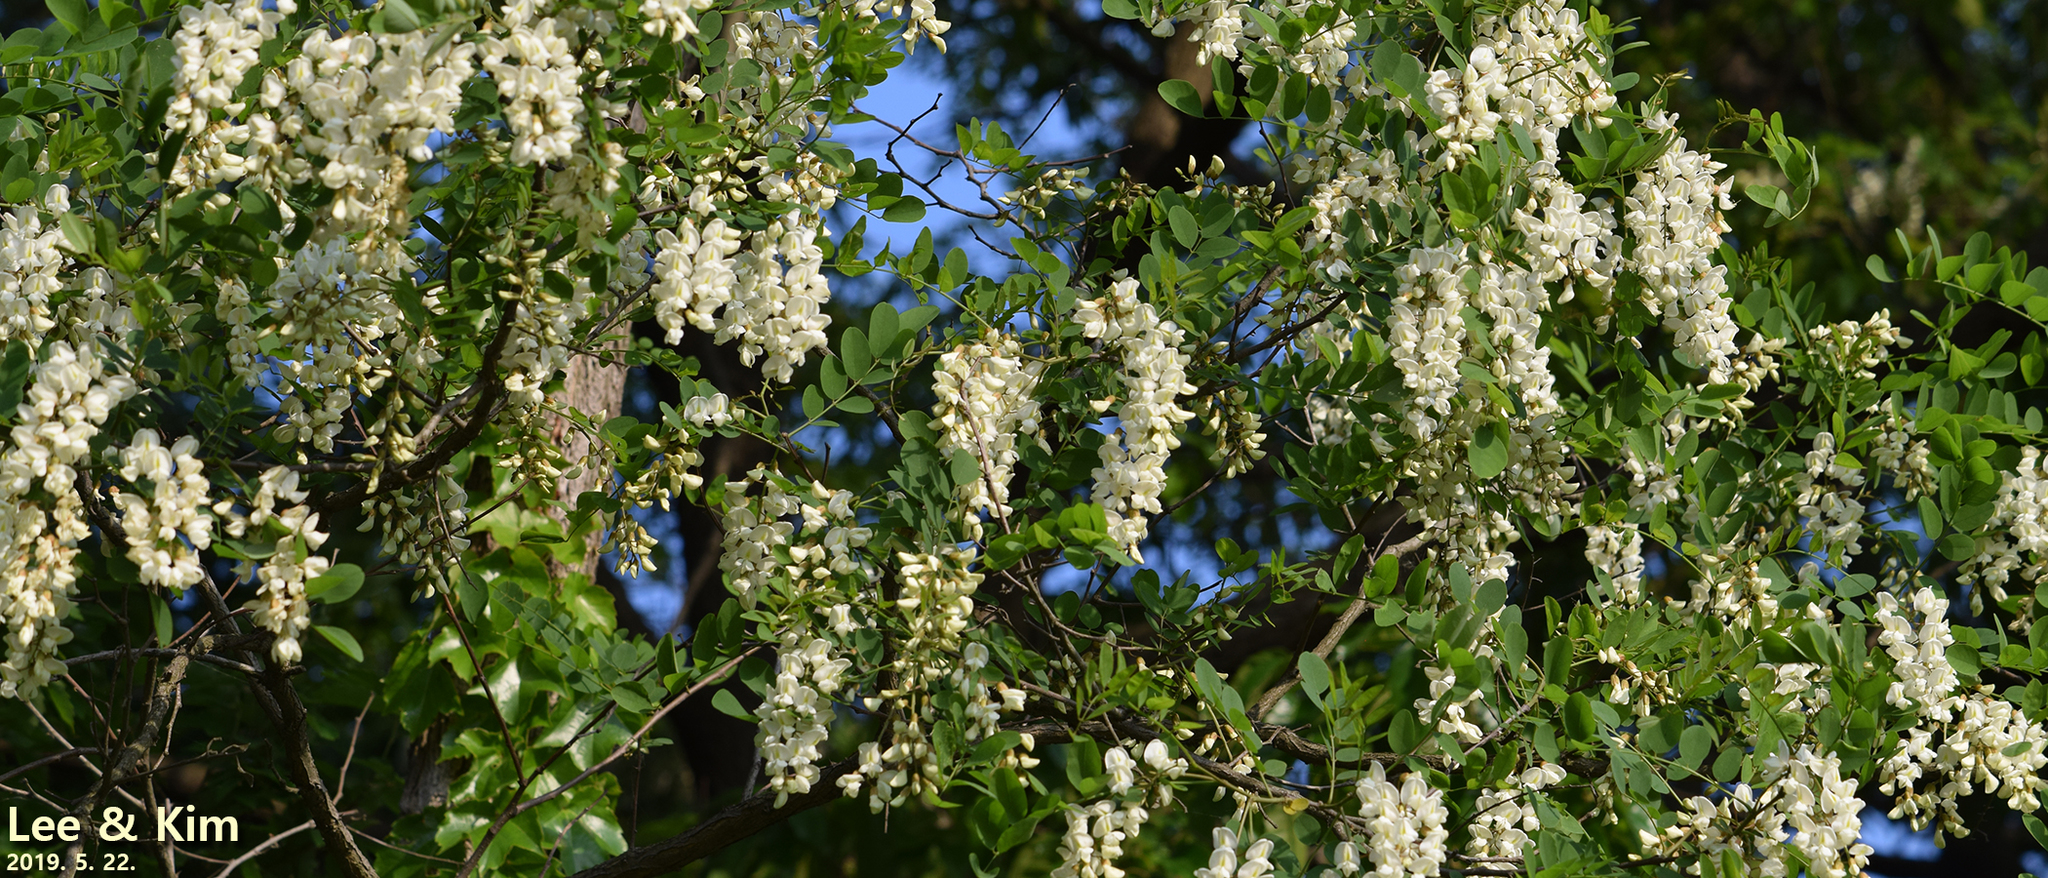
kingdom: Plantae
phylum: Tracheophyta
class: Magnoliopsida
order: Fabales
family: Fabaceae
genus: Robinia
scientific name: Robinia pseudoacacia
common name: Black locust
